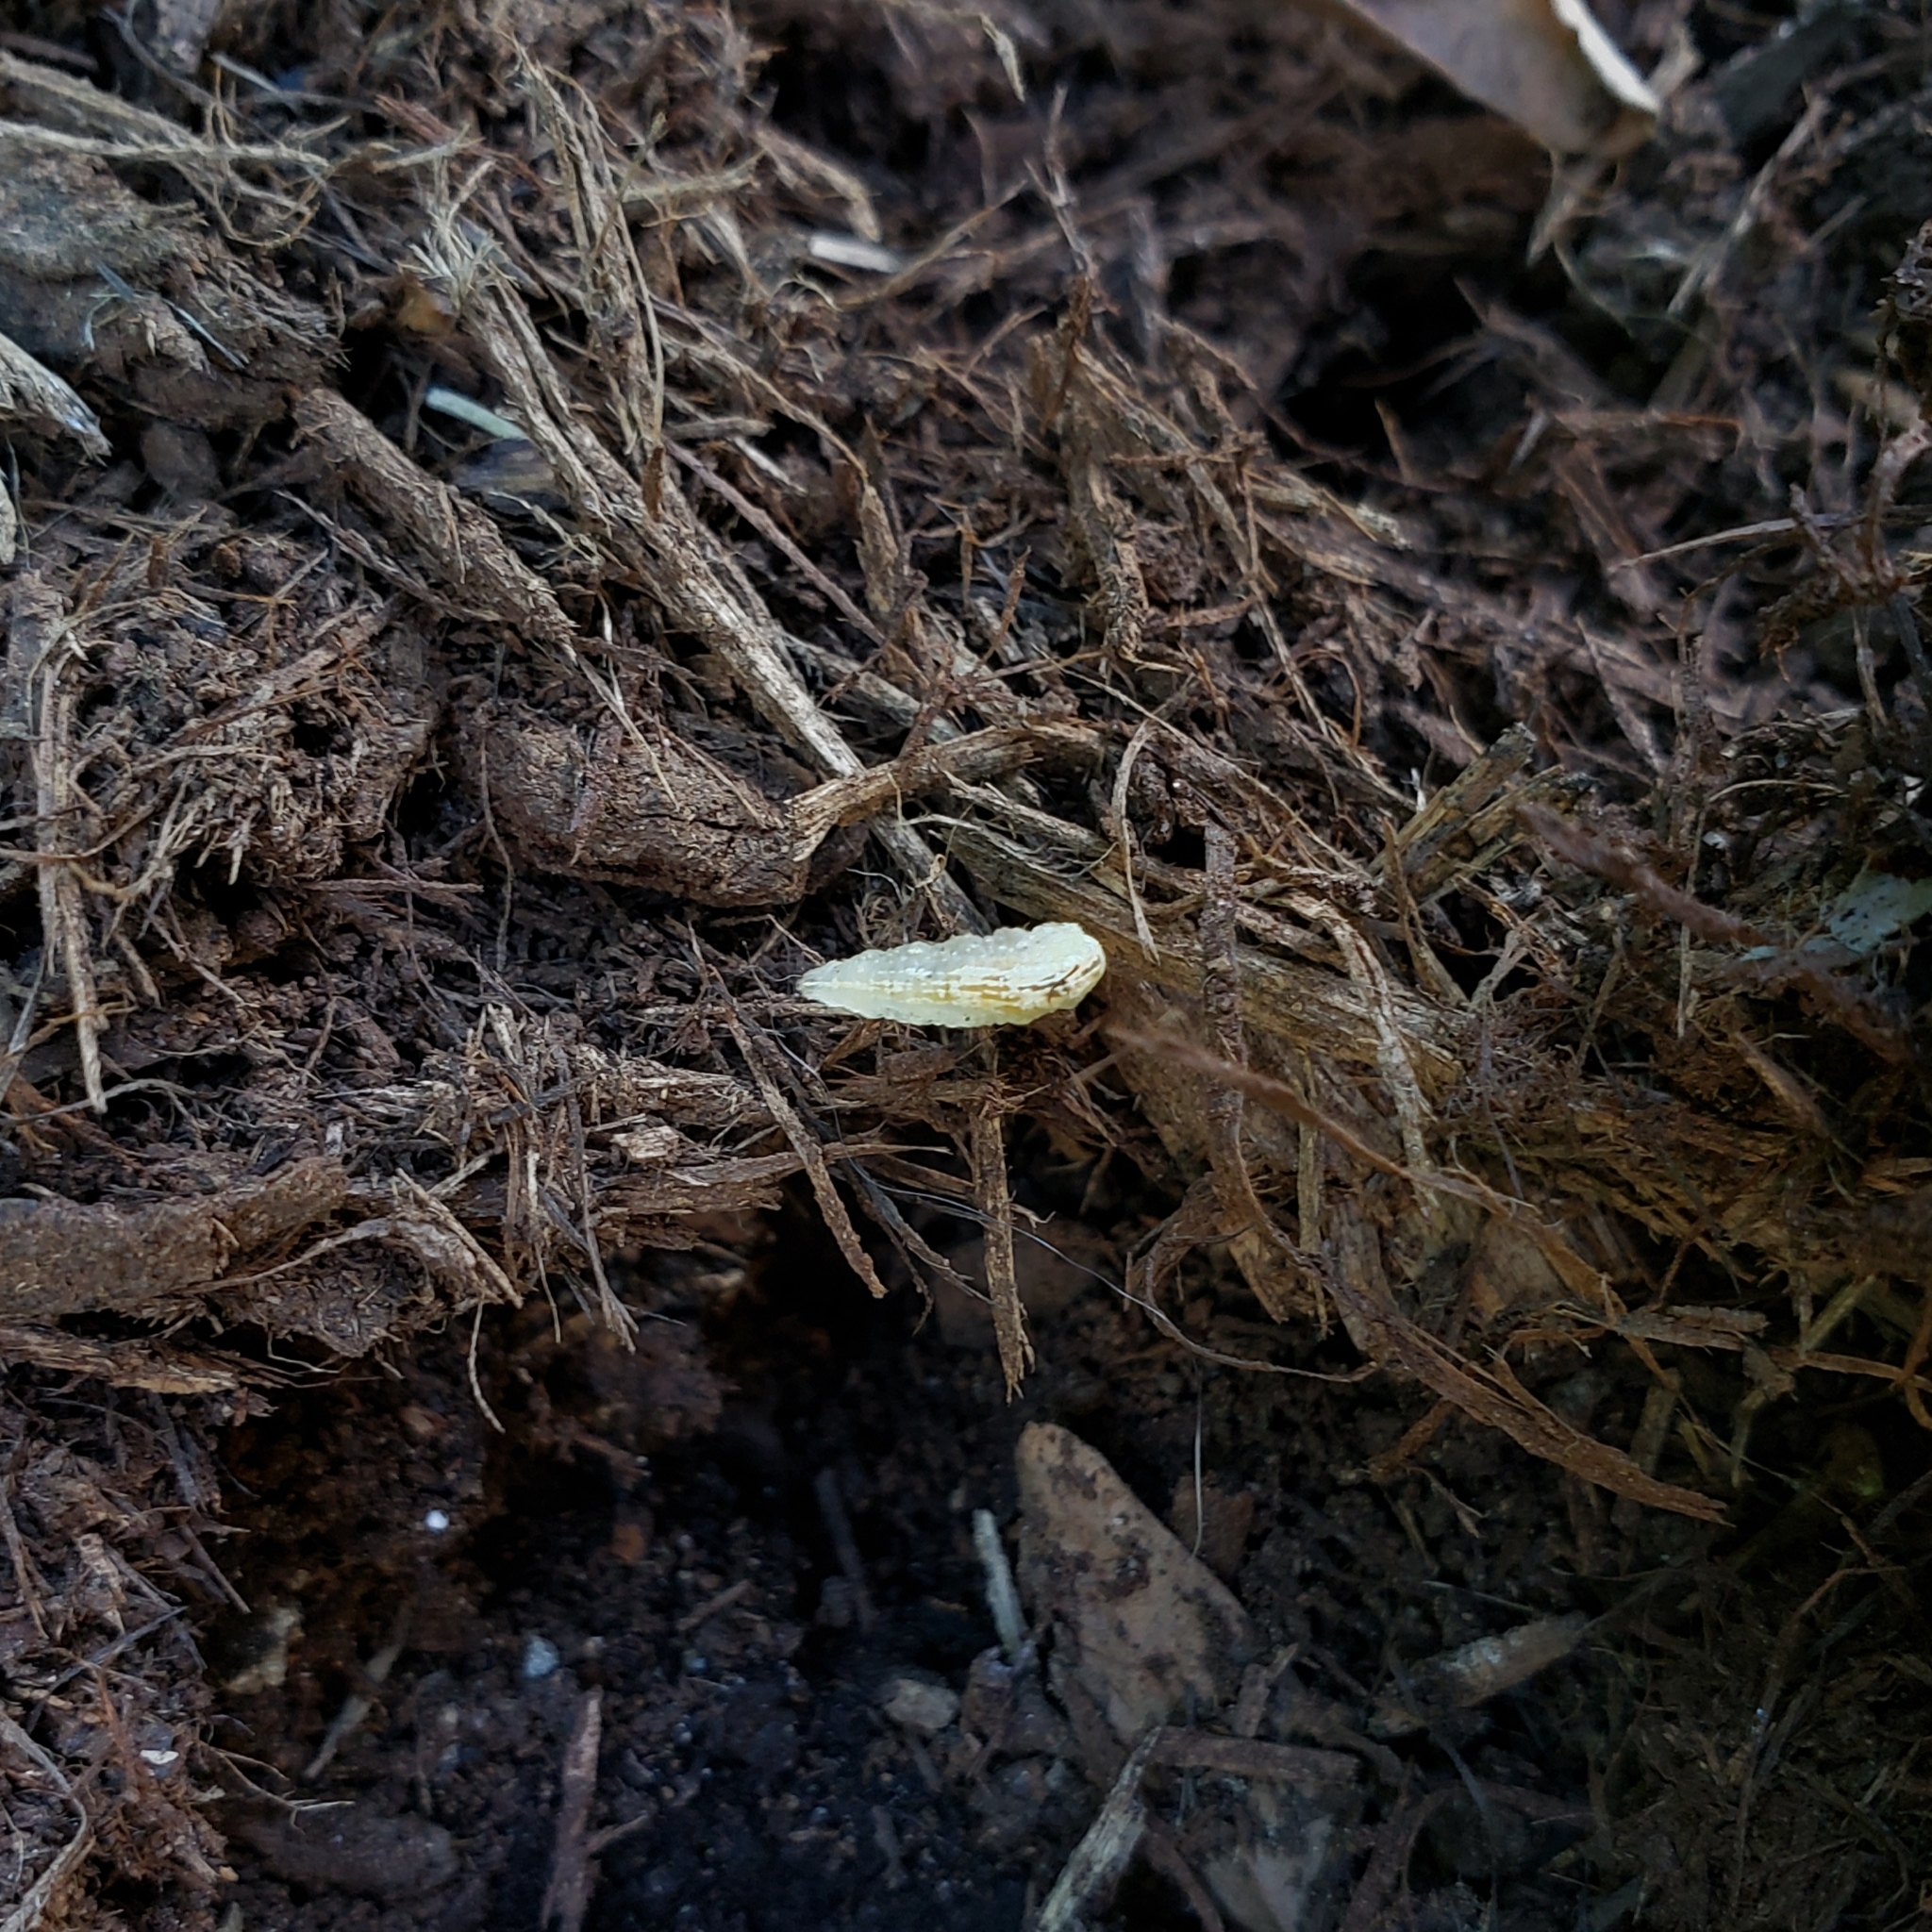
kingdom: Animalia
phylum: Arthropoda
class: Insecta
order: Diptera
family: Syrphidae
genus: Syrphus
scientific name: Syrphus
